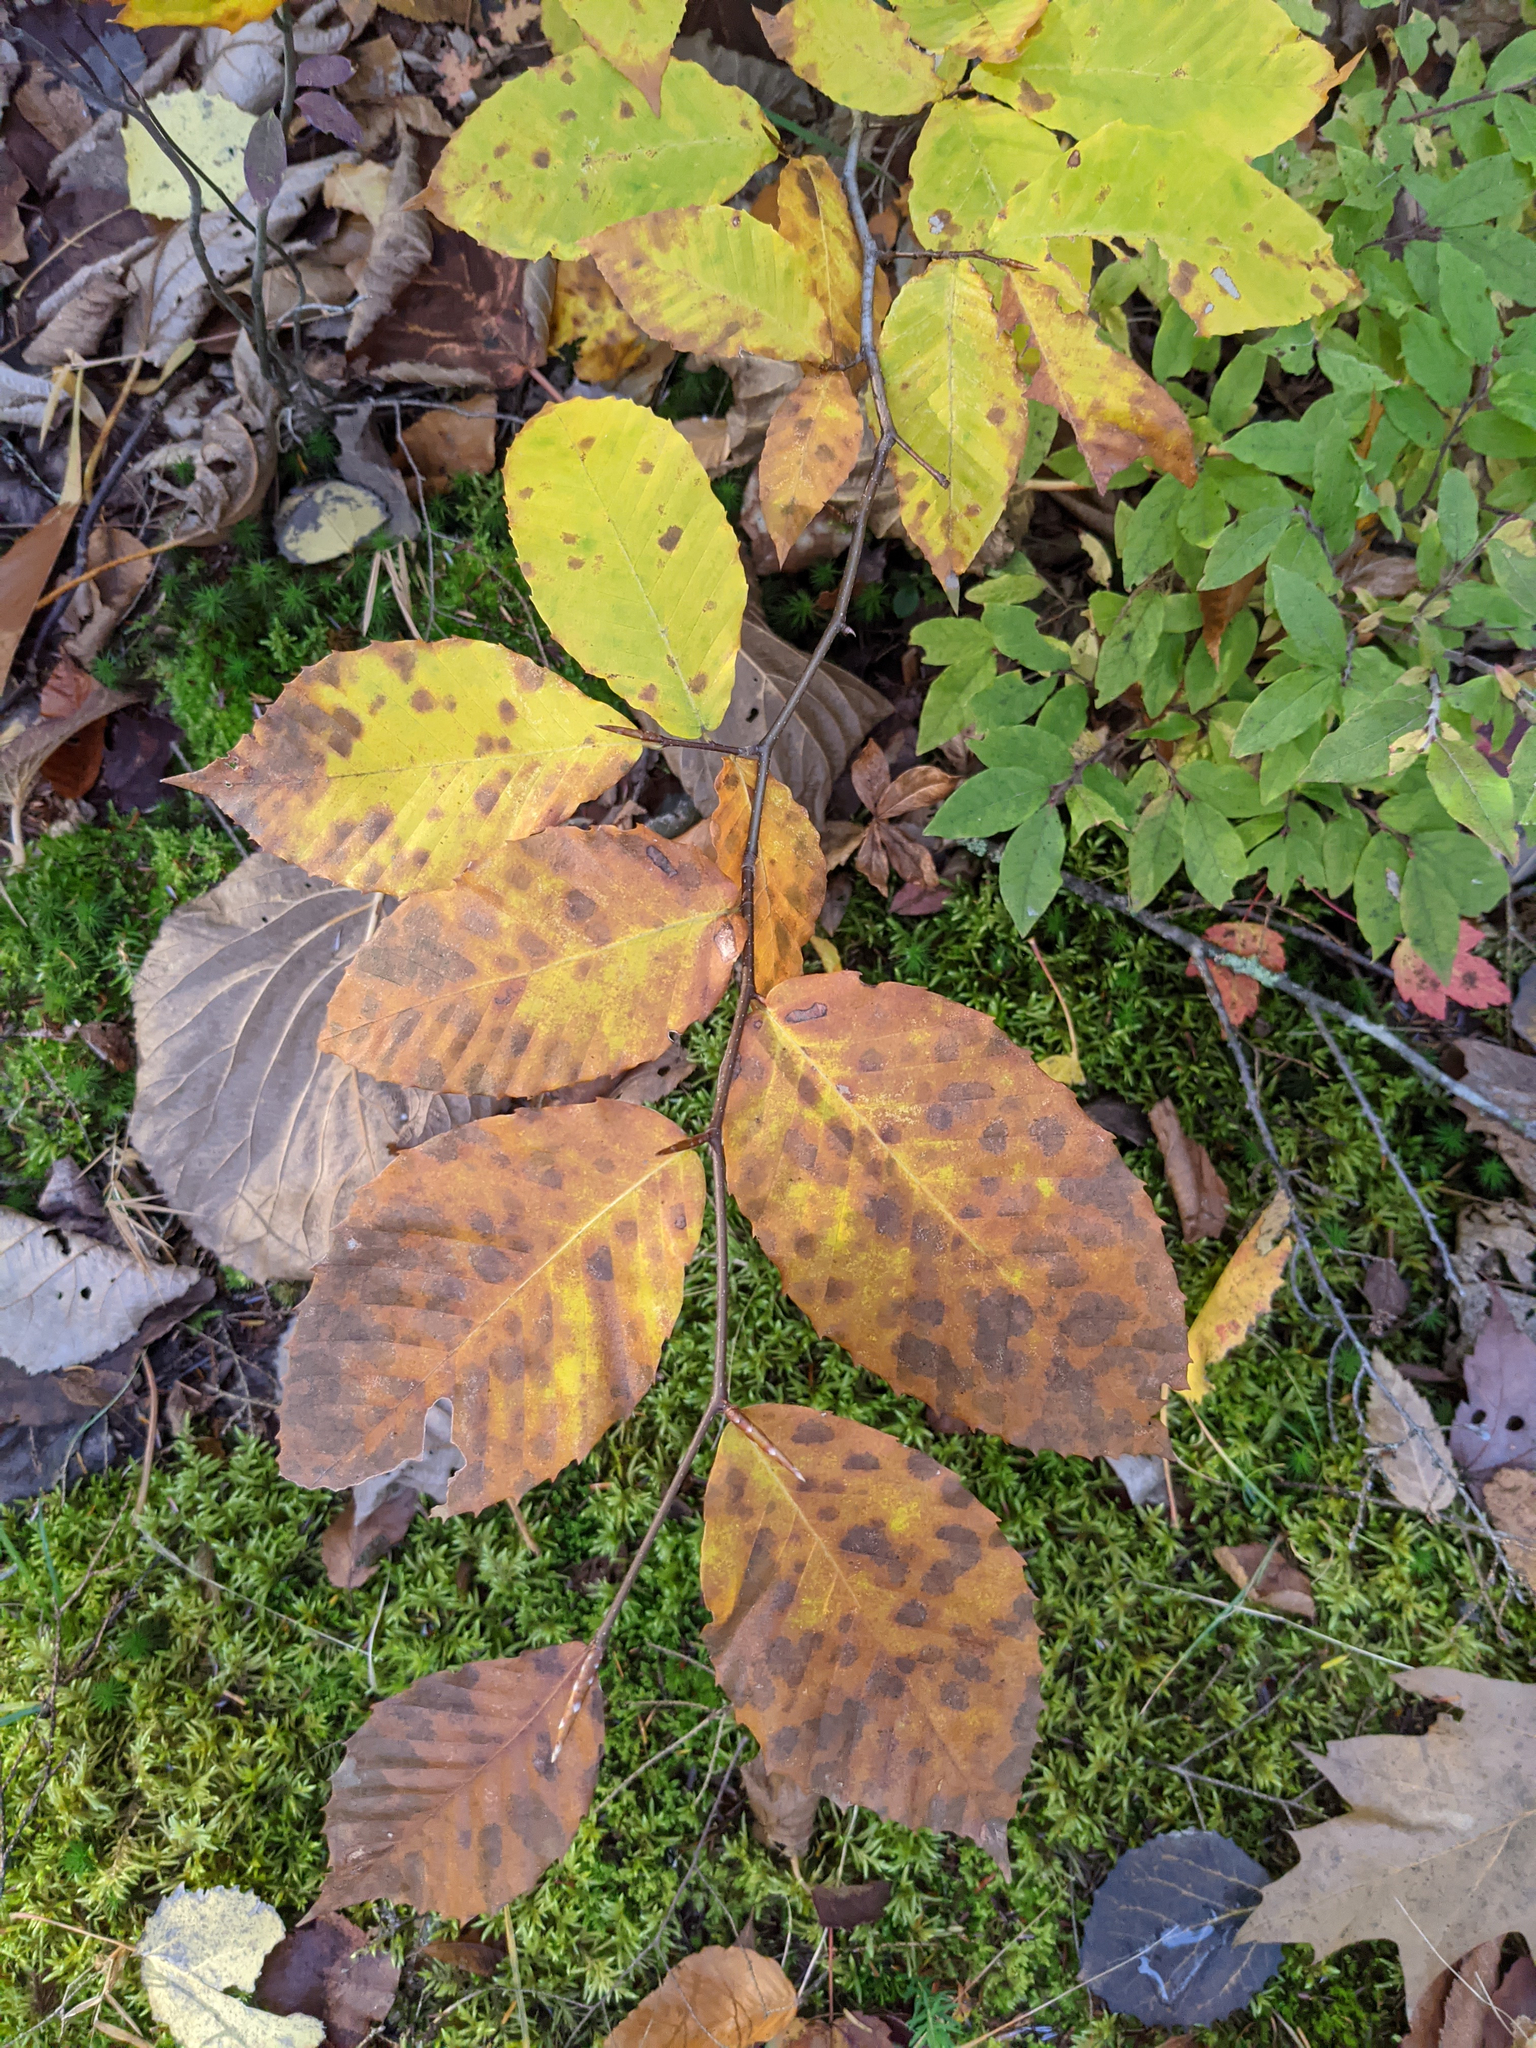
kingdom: Plantae
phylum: Tracheophyta
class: Magnoliopsida
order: Fagales
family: Fagaceae
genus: Fagus
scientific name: Fagus grandifolia
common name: American beech
